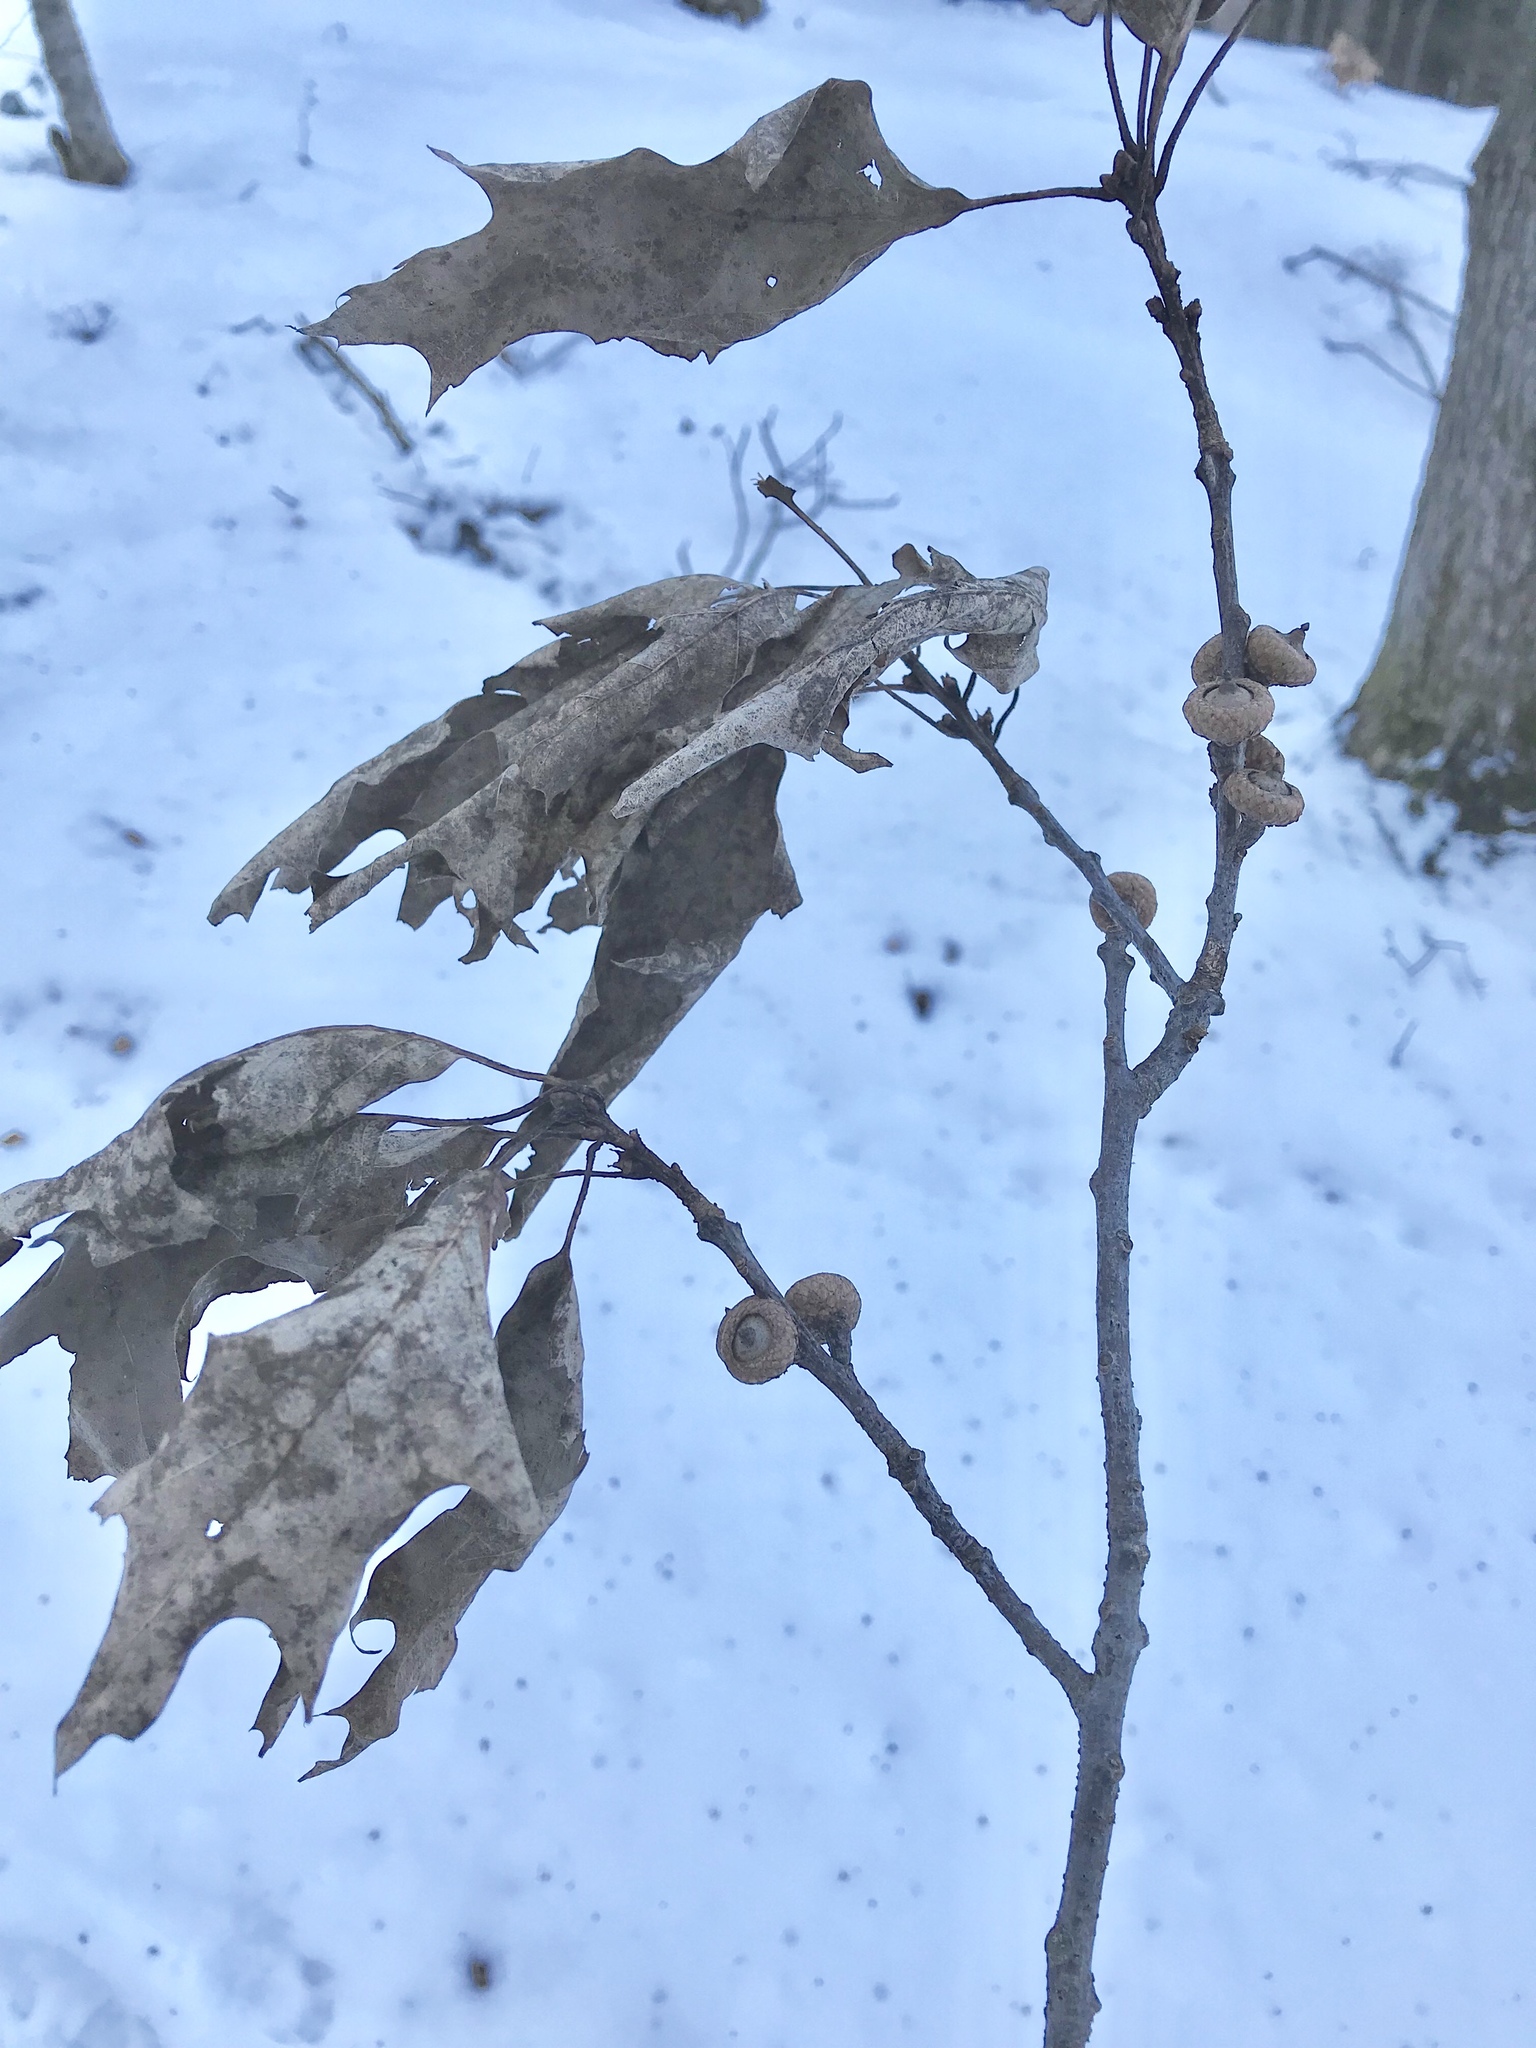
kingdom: Plantae
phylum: Tracheophyta
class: Magnoliopsida
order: Fagales
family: Fagaceae
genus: Quercus
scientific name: Quercus rubra
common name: Red oak
